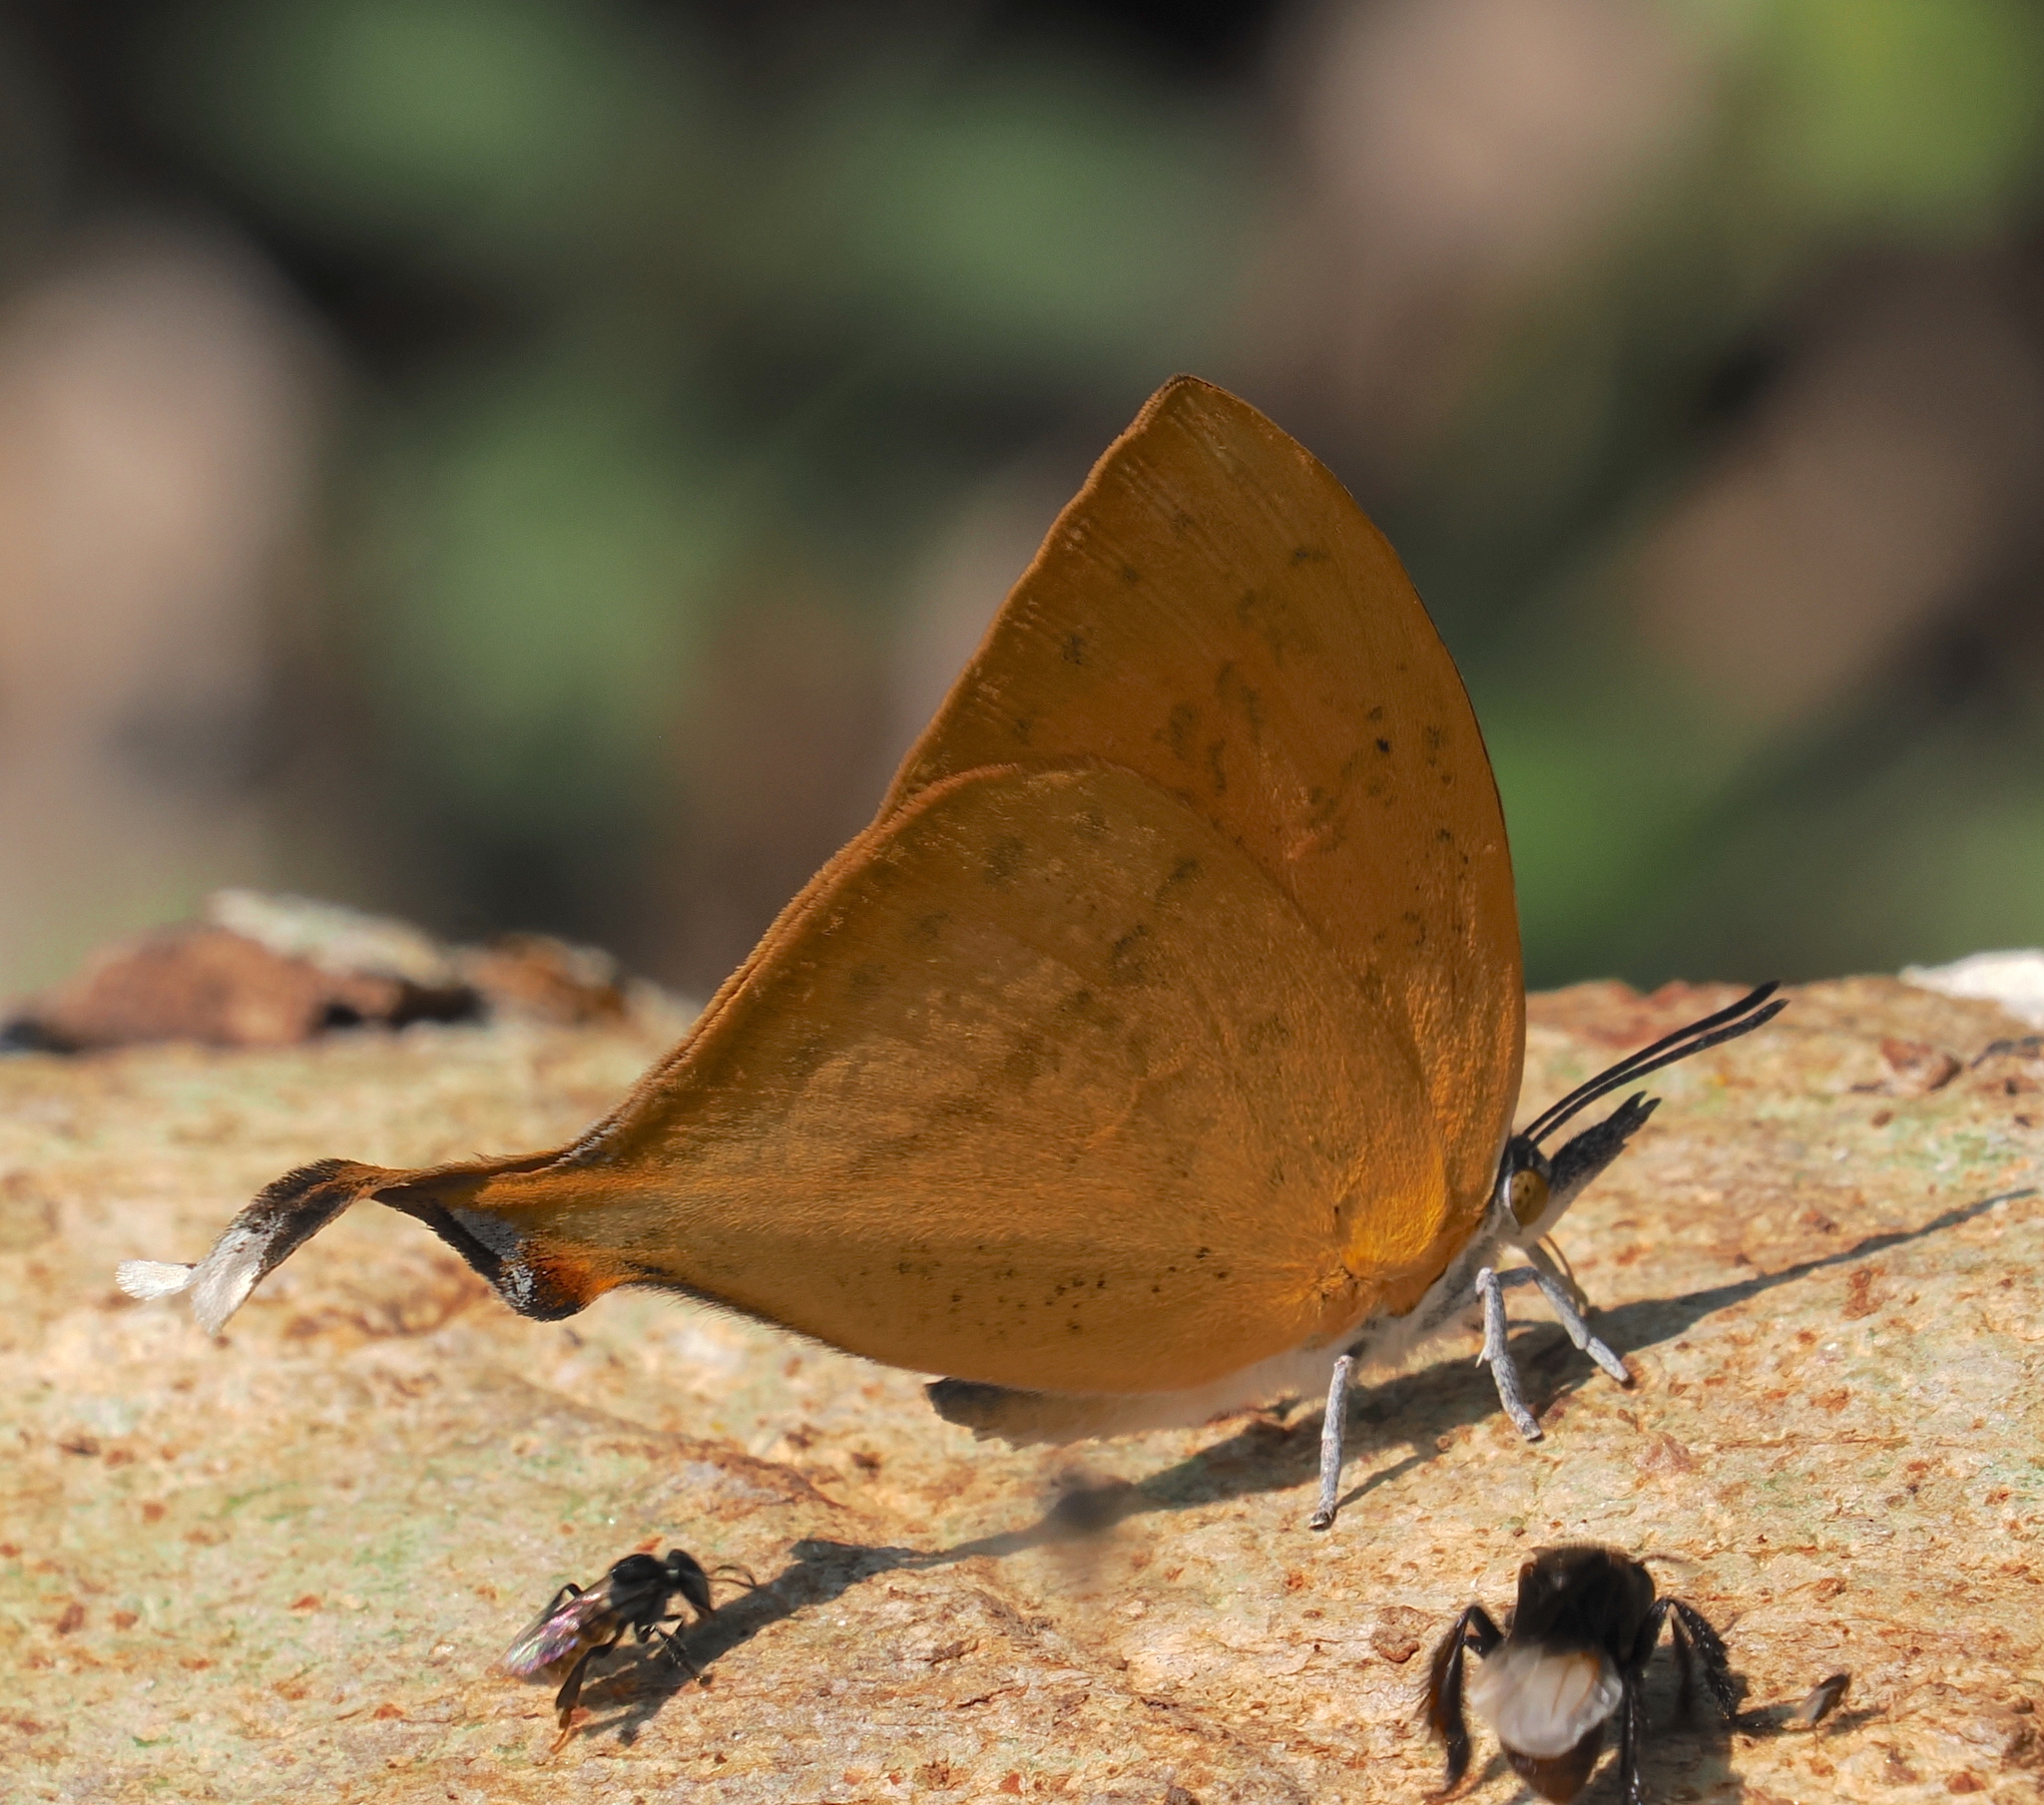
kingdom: Animalia
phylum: Arthropoda
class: Insecta
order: Lepidoptera
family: Lycaenidae
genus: Loxura
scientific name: Loxura atymnus
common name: Common yamfly
